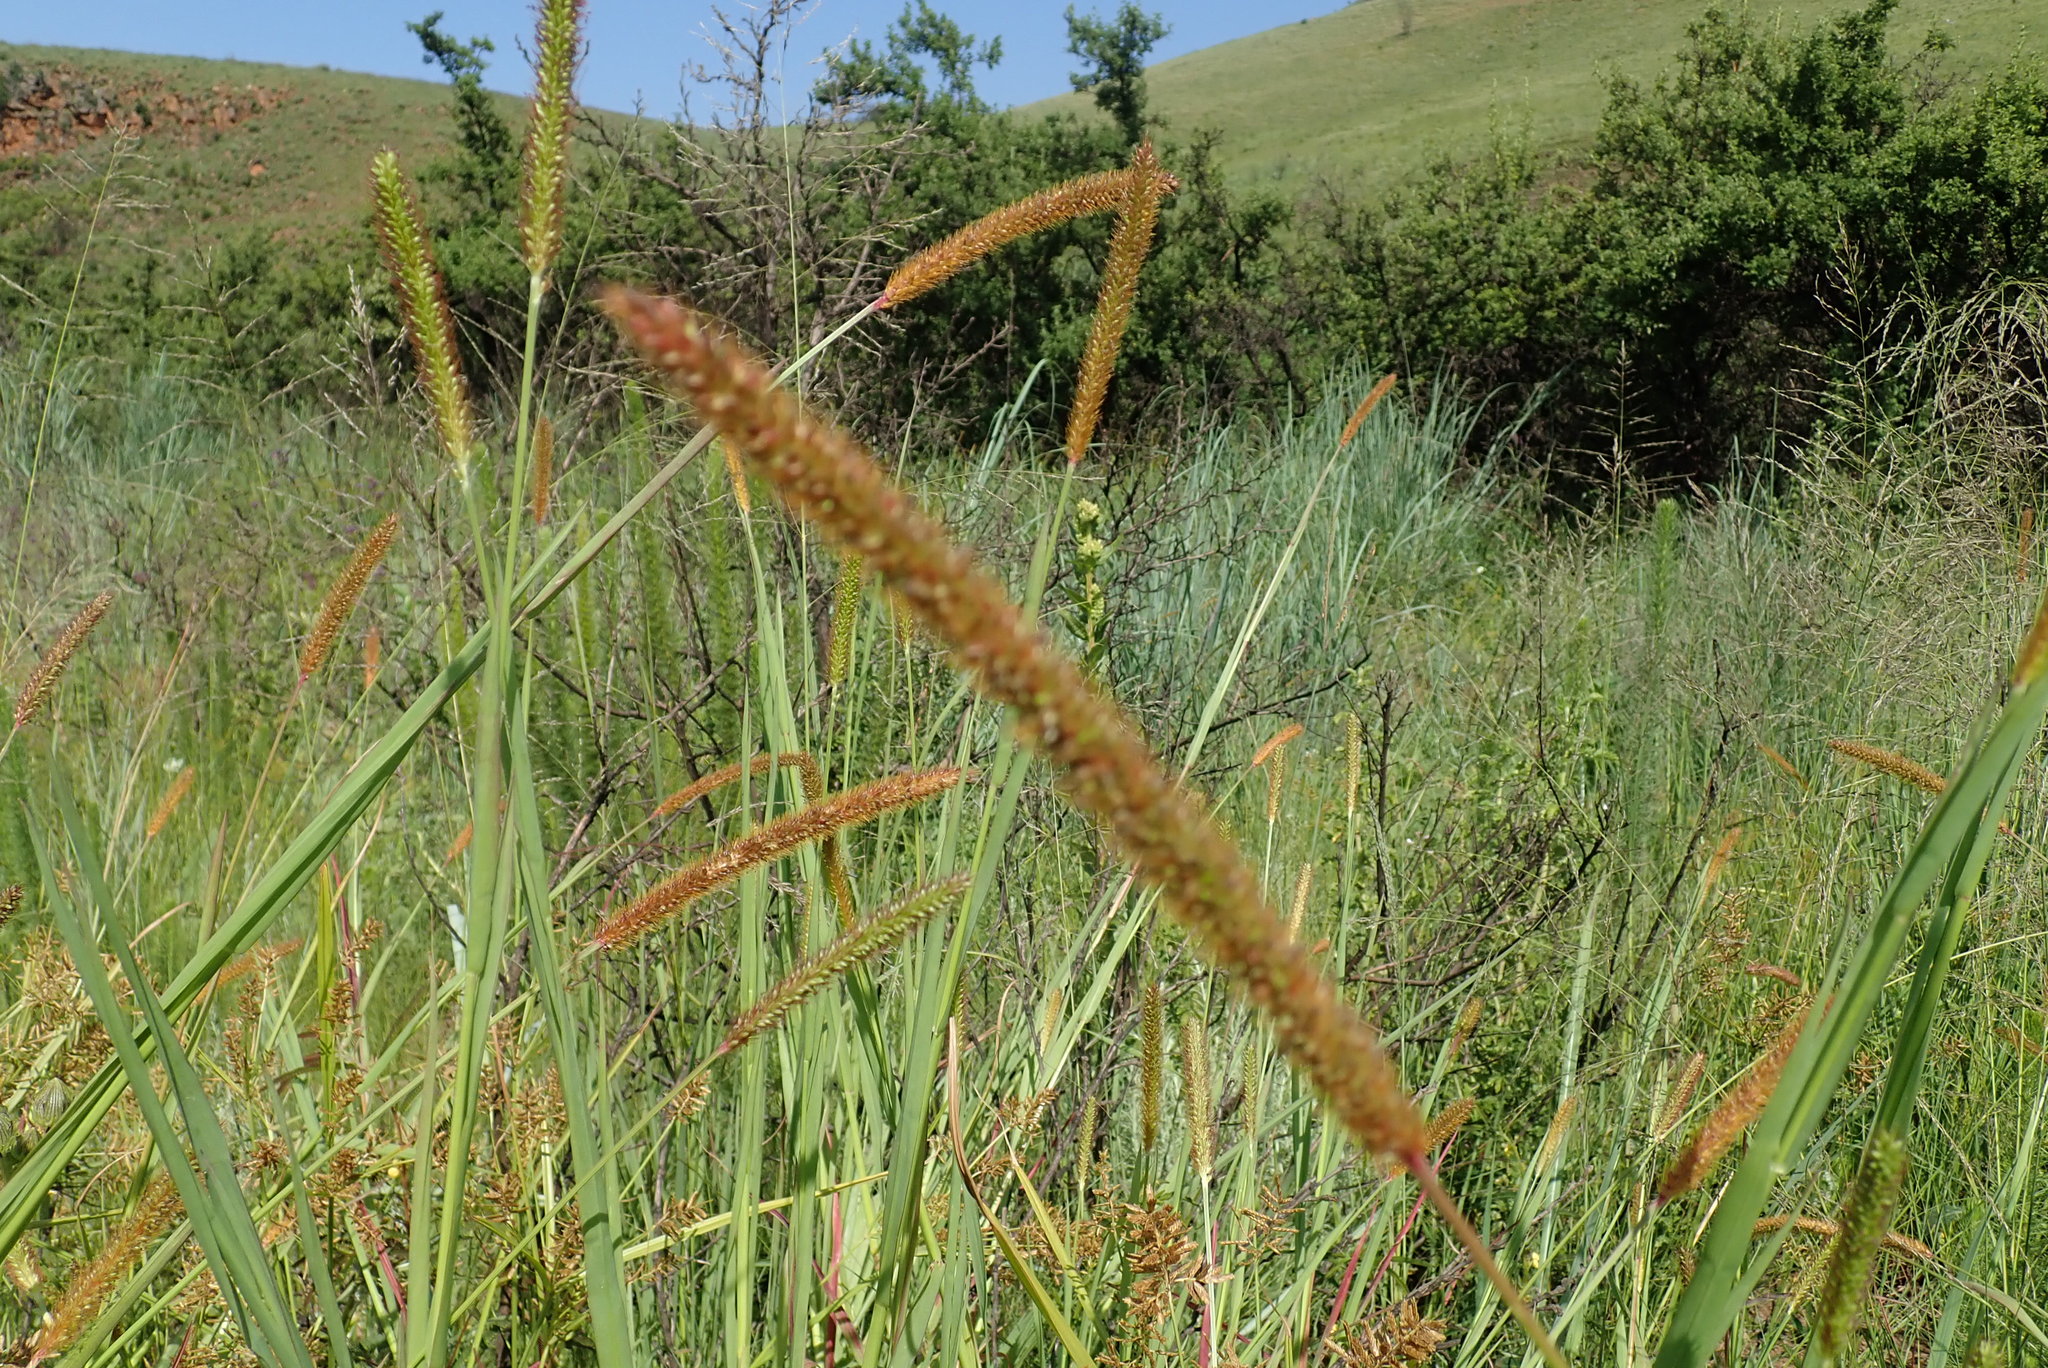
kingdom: Plantae
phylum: Tracheophyta
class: Liliopsida
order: Poales
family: Poaceae
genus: Setaria
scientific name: Setaria sphacelata
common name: African bristlegrass
